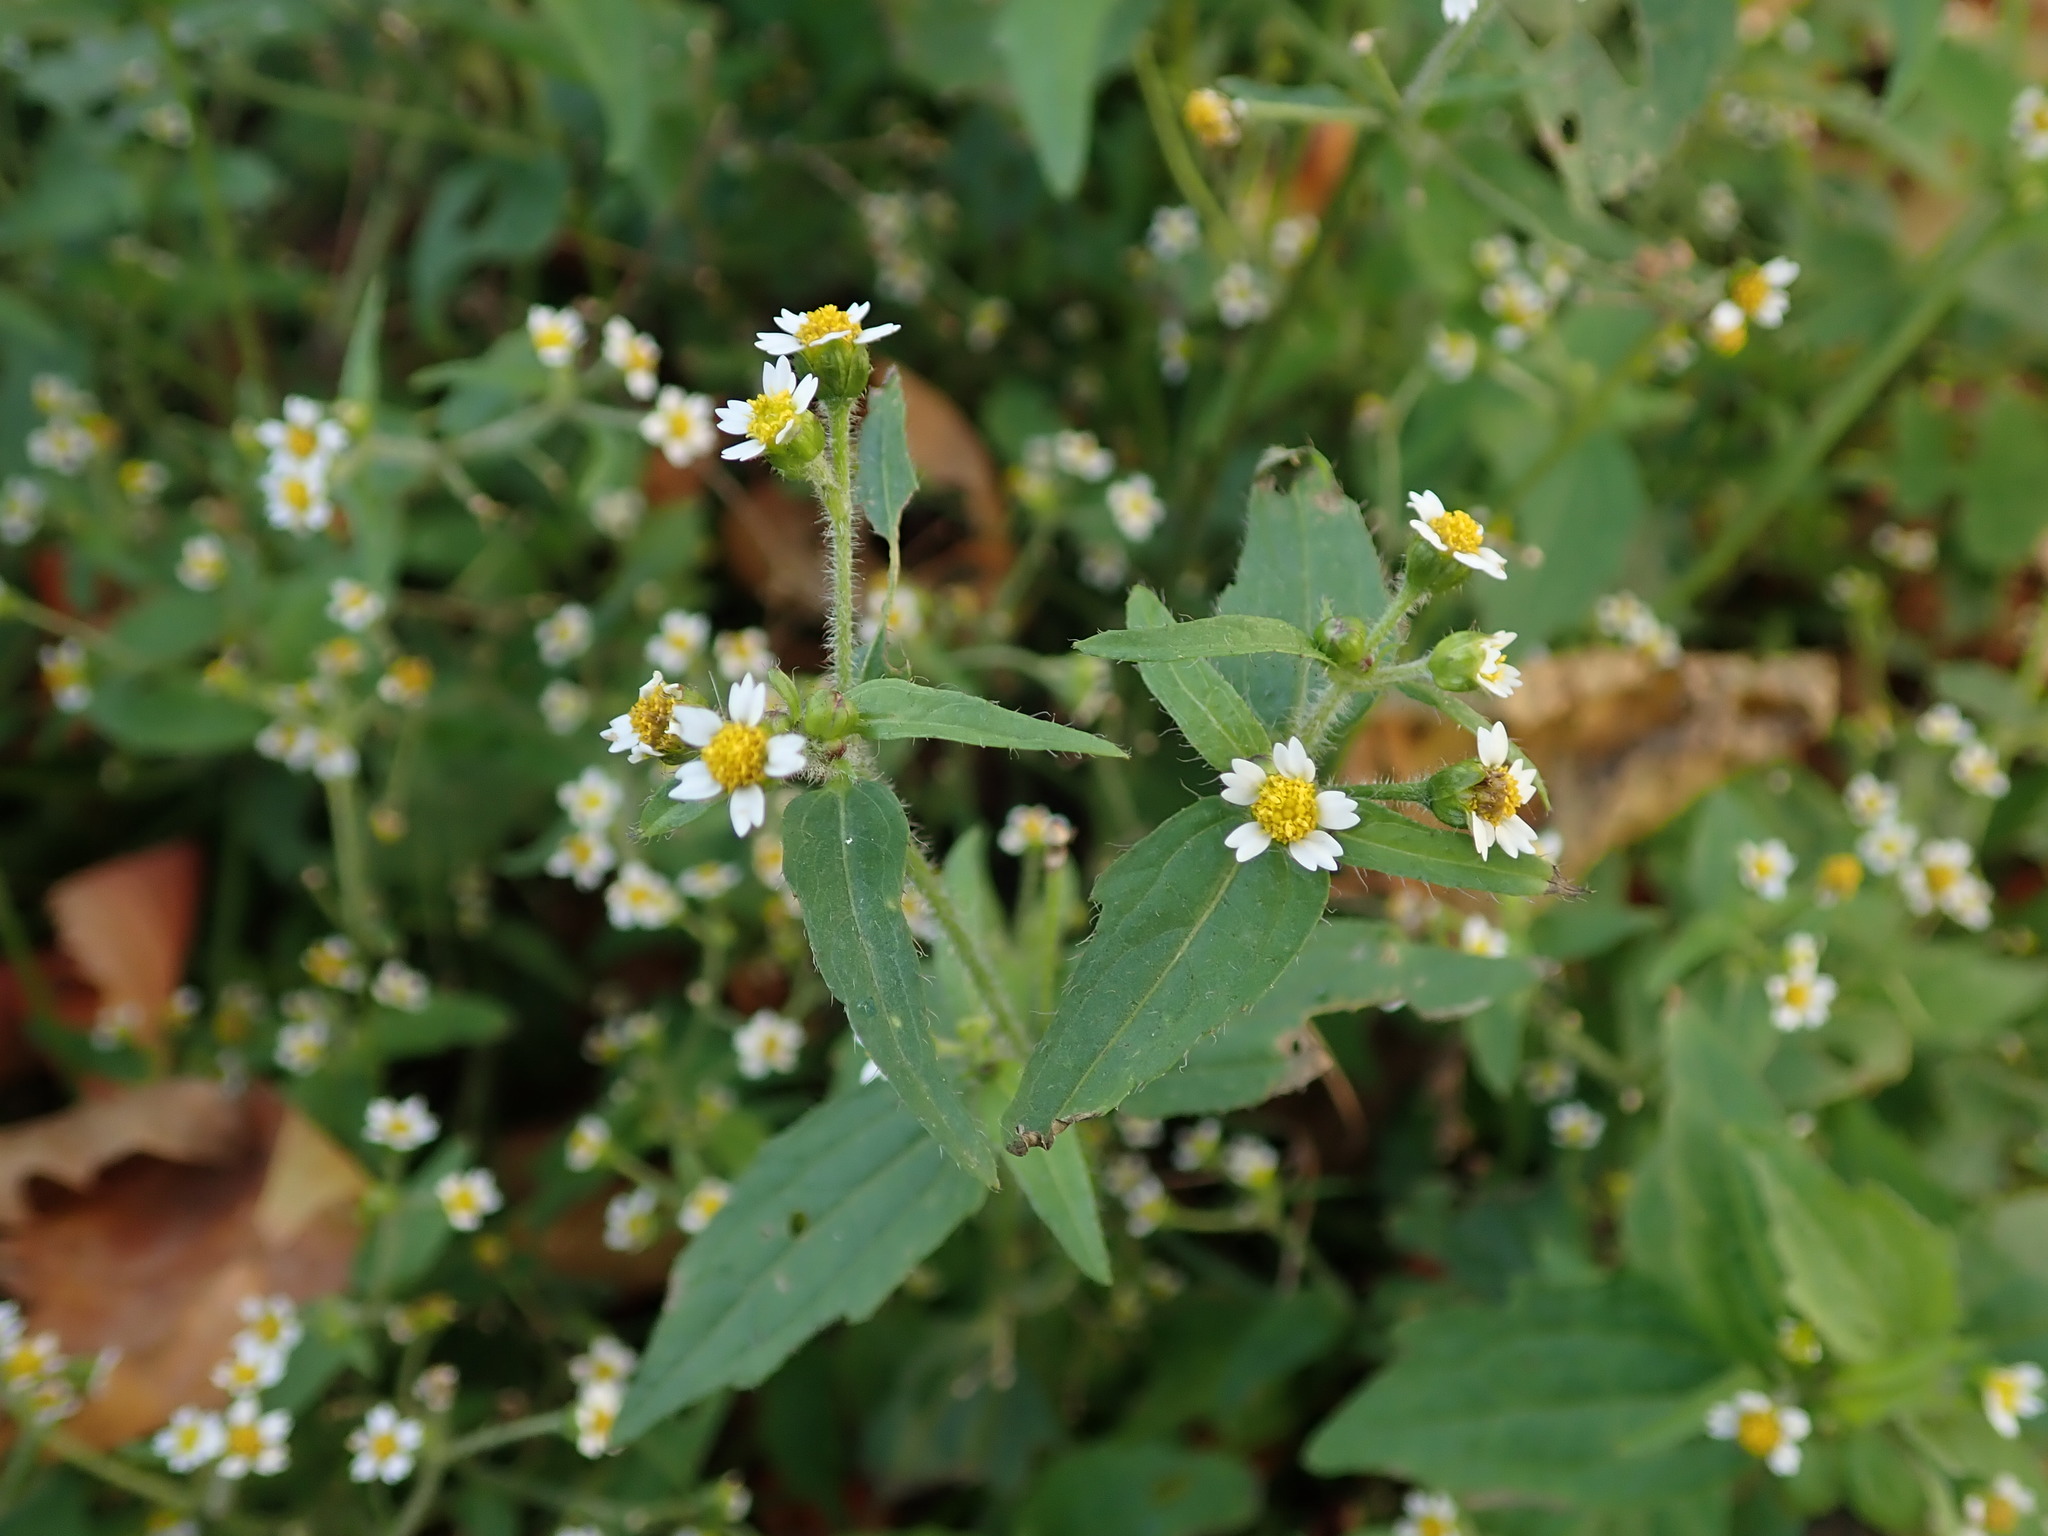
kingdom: Plantae
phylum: Tracheophyta
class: Magnoliopsida
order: Asterales
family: Asteraceae
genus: Galinsoga
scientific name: Galinsoga quadriradiata
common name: Shaggy soldier
